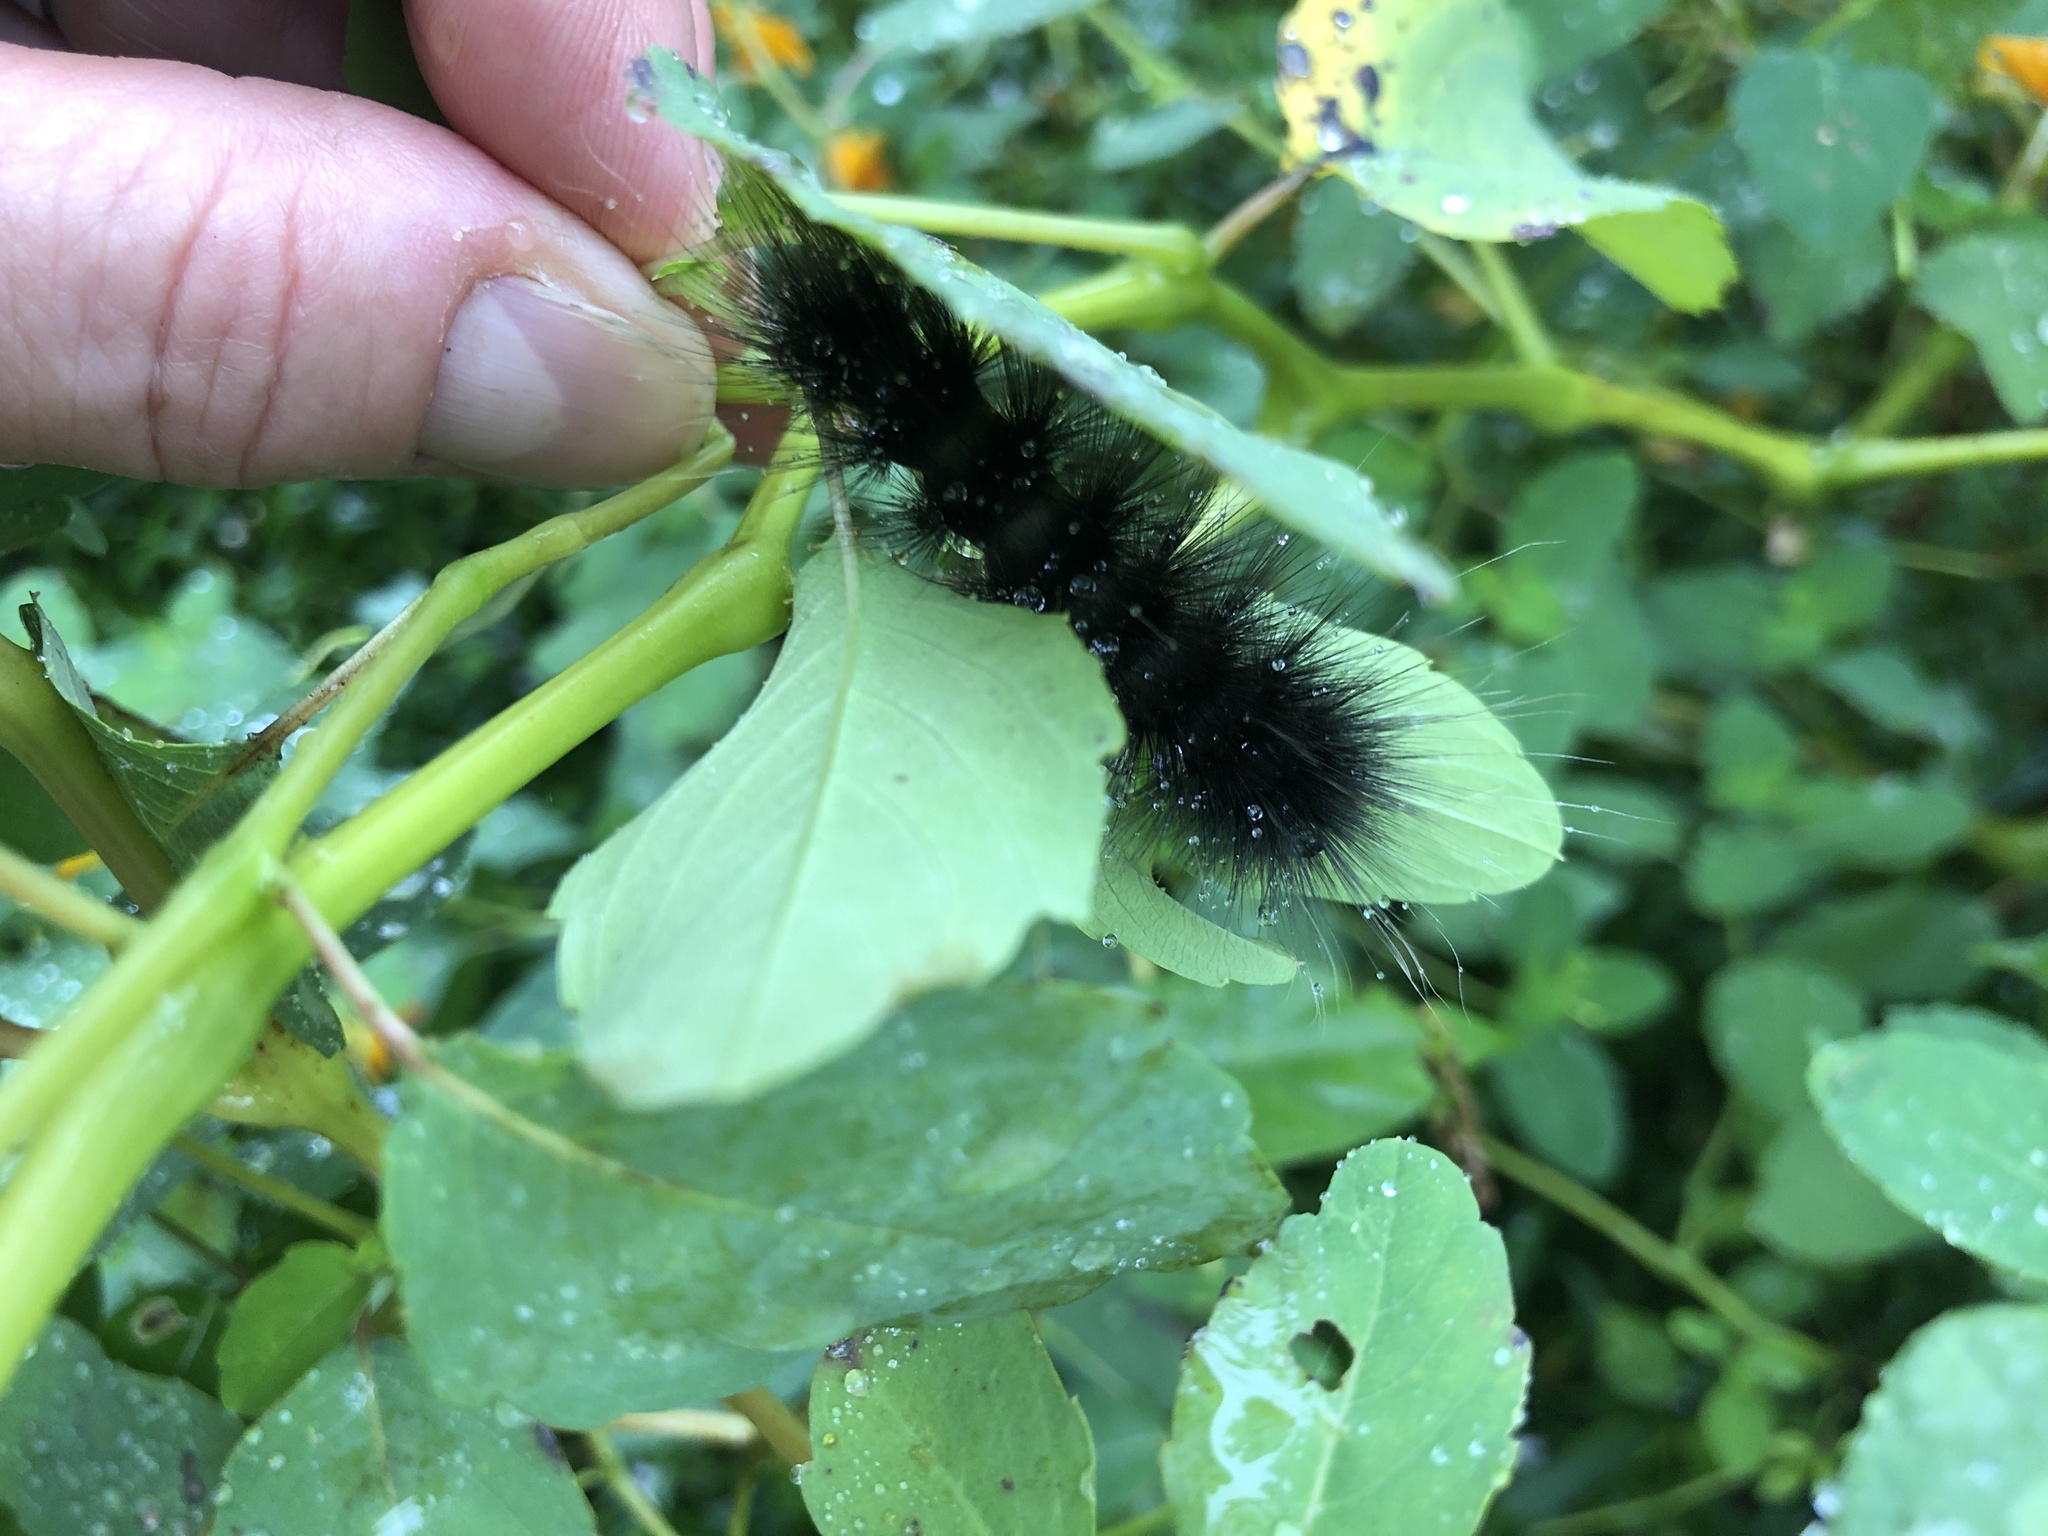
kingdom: Animalia
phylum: Arthropoda
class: Insecta
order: Lepidoptera
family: Erebidae
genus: Spilosoma
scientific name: Spilosoma virginica
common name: Virginia tiger moth
